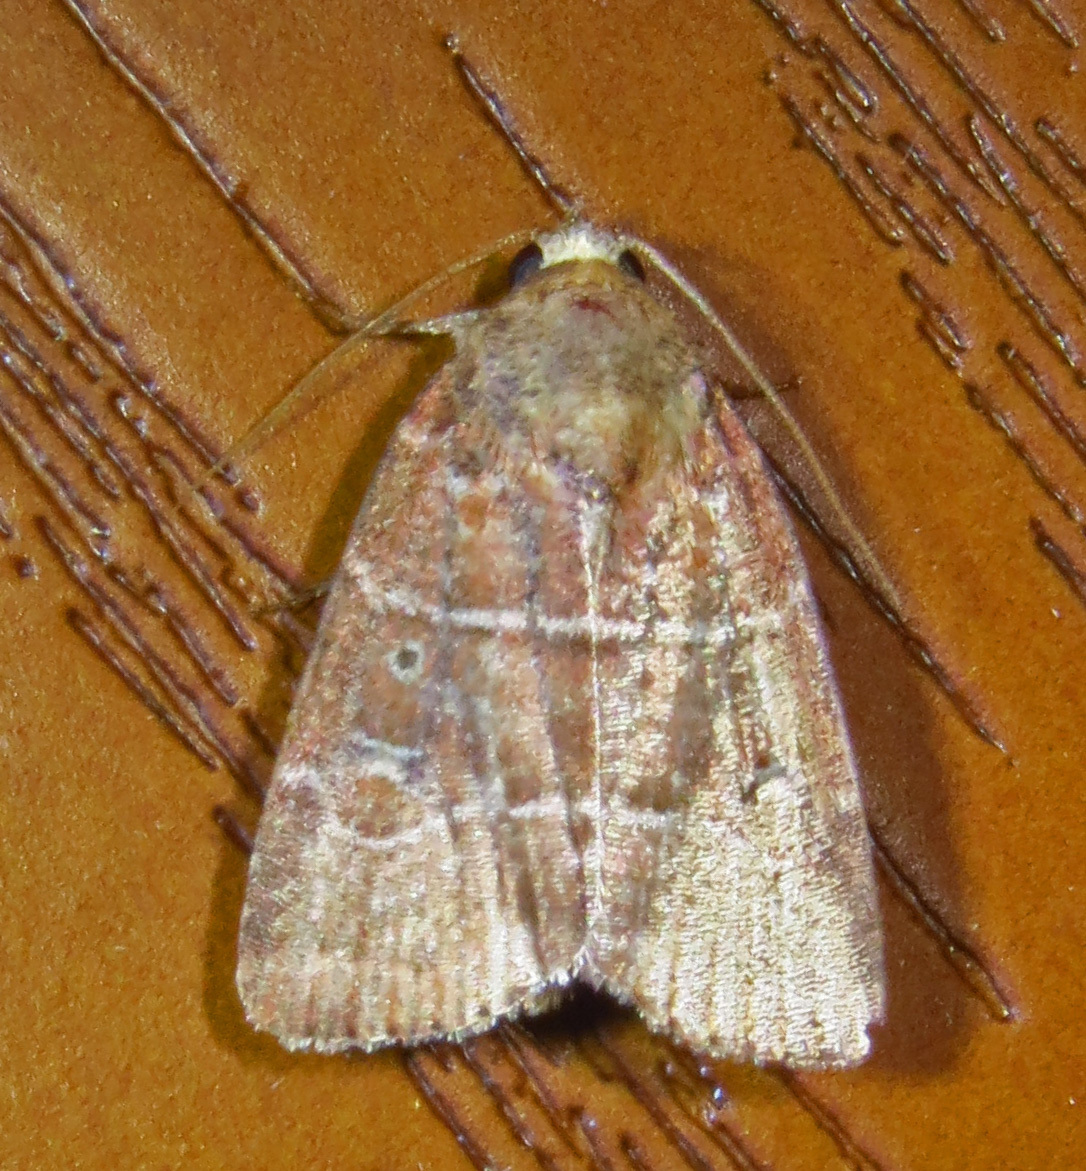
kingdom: Animalia
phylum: Arthropoda
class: Insecta
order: Lepidoptera
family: Noctuidae
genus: Elaphria
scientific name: Elaphria grata
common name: Grateful midget moth
